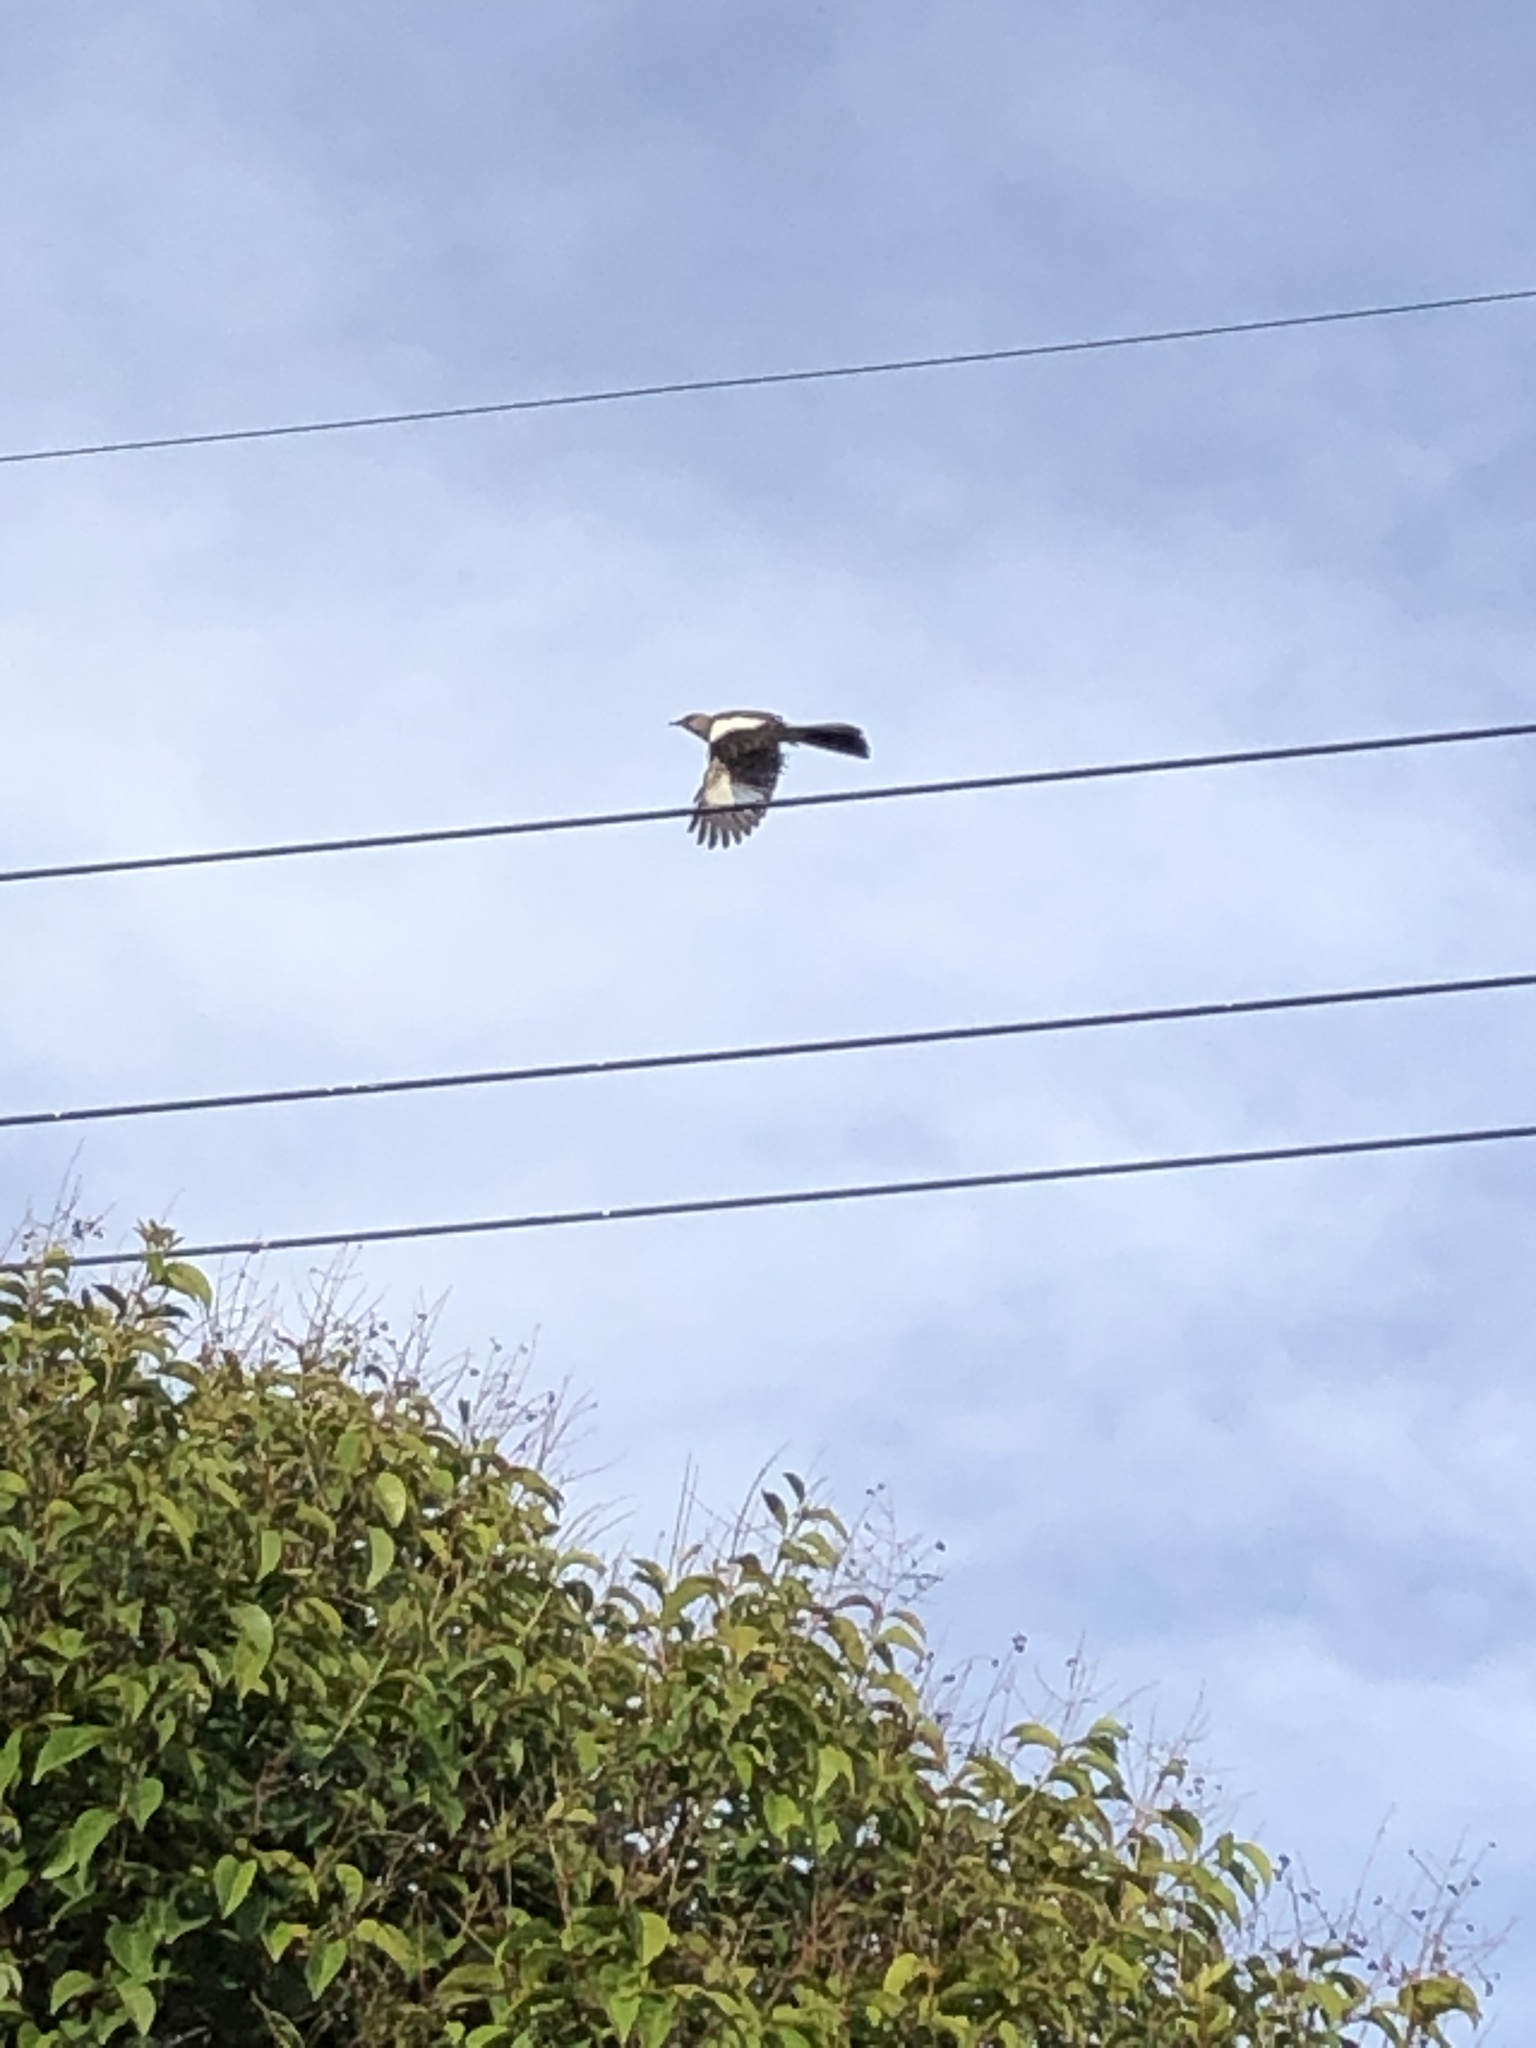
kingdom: Animalia
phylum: Chordata
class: Aves
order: Passeriformes
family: Mimidae
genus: Mimus
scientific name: Mimus polyglottos
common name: Northern mockingbird
